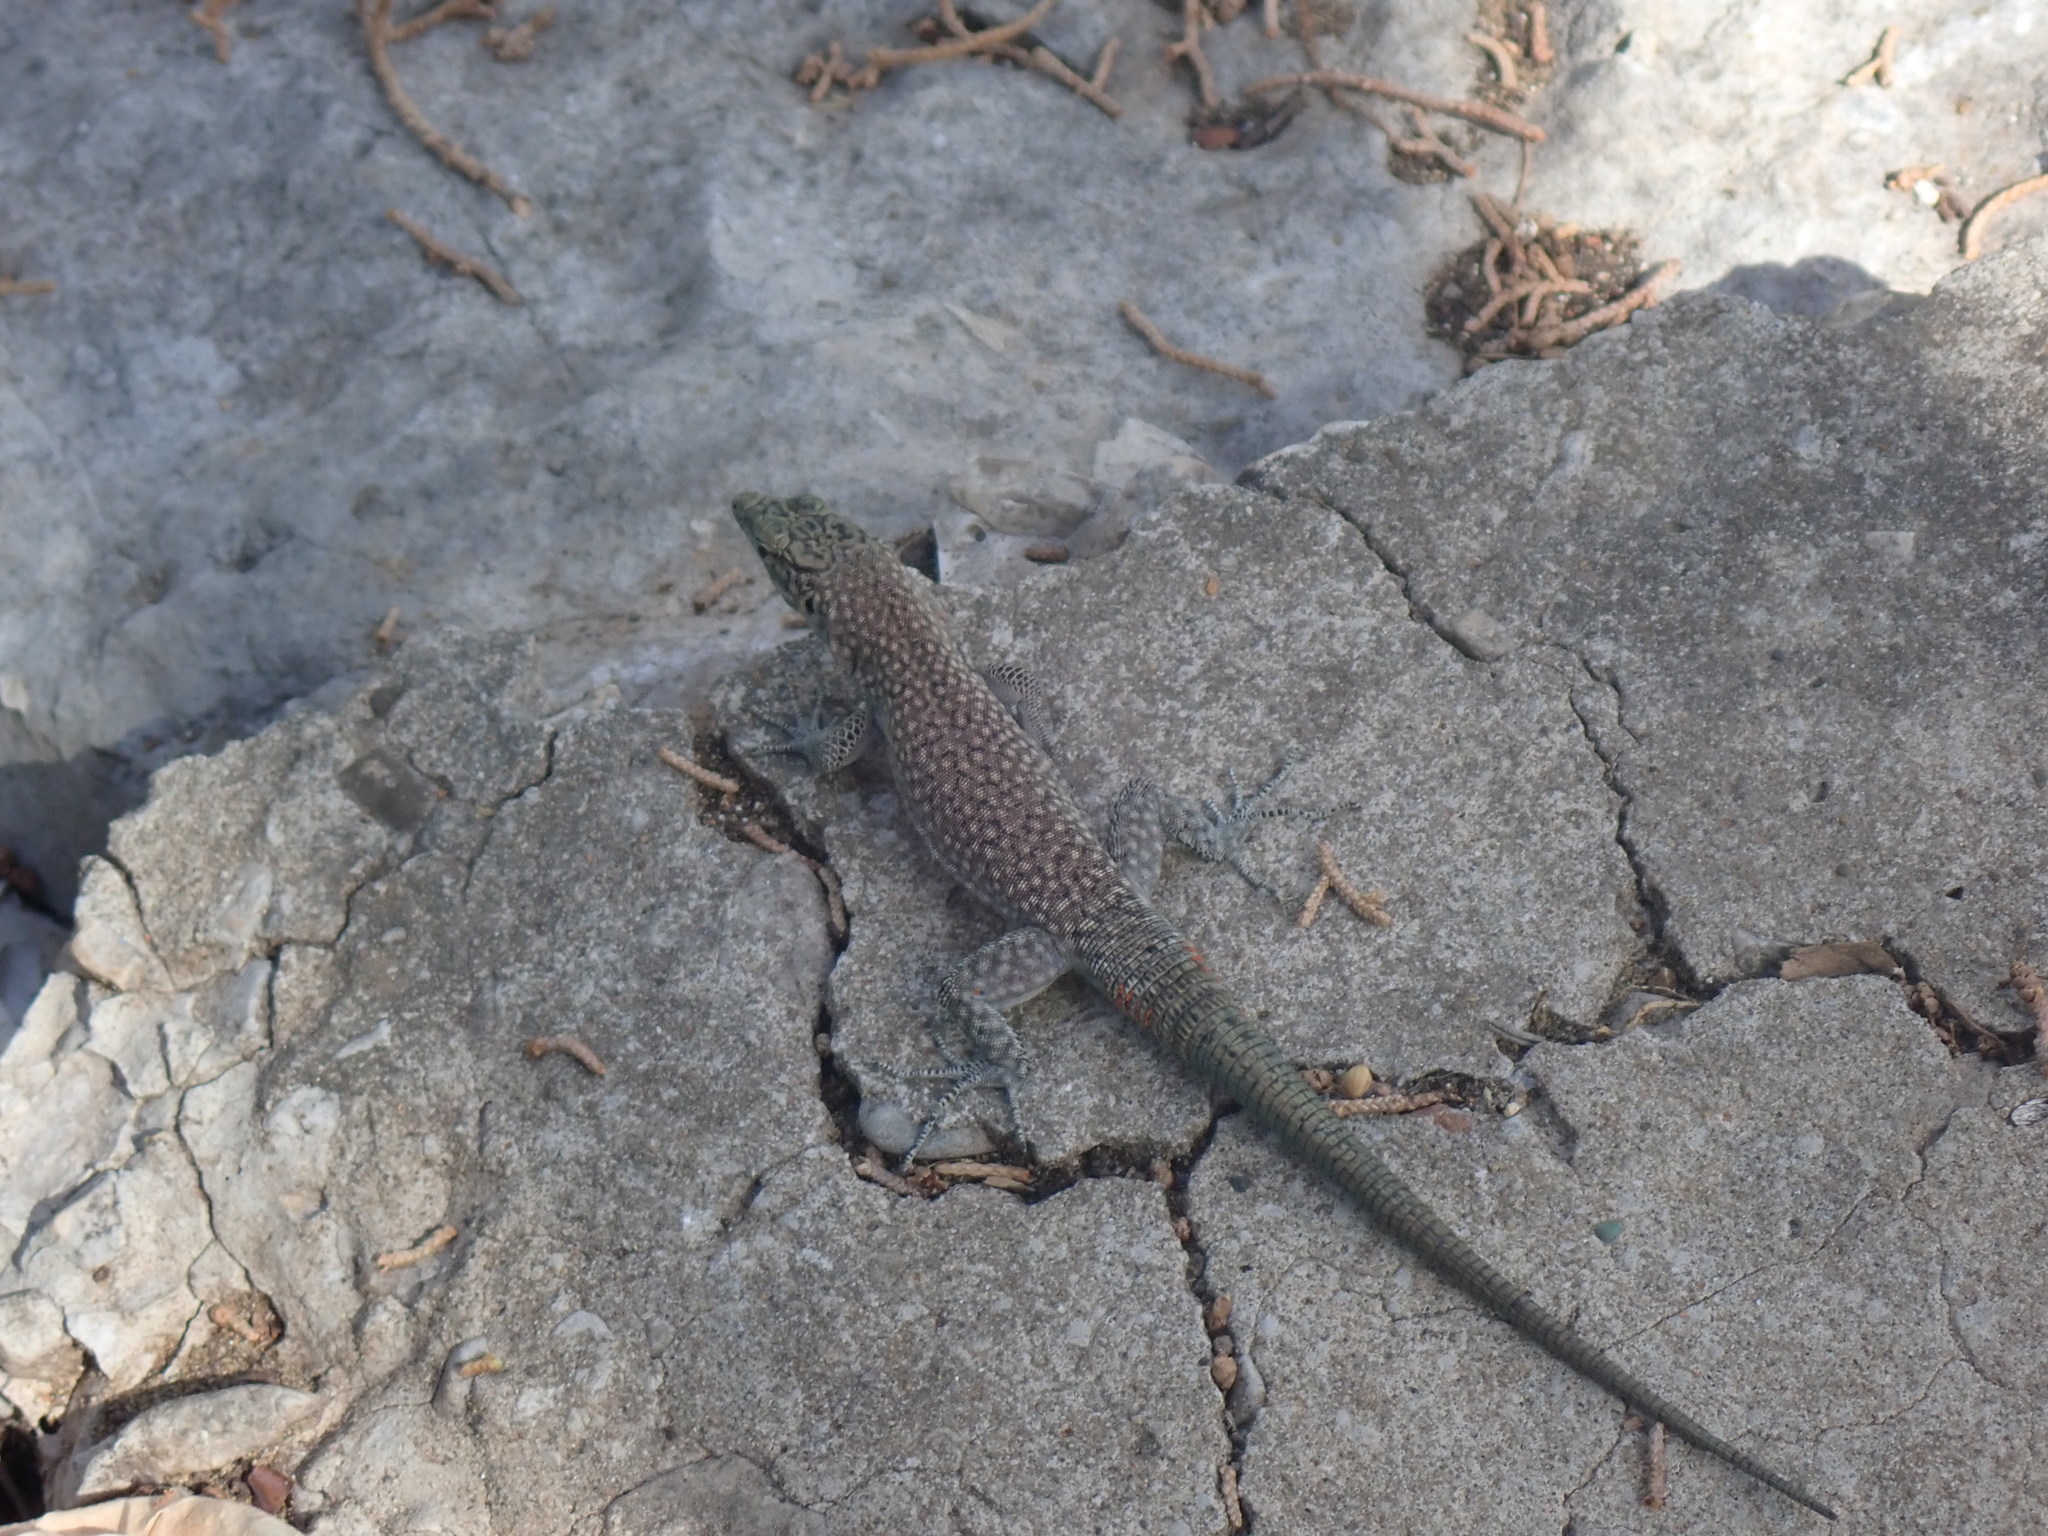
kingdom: Animalia
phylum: Chordata
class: Squamata
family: Lacertidae
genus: Dalmatolacerta
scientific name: Dalmatolacerta oxycephala
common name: Sharp-snouted rock lizard
